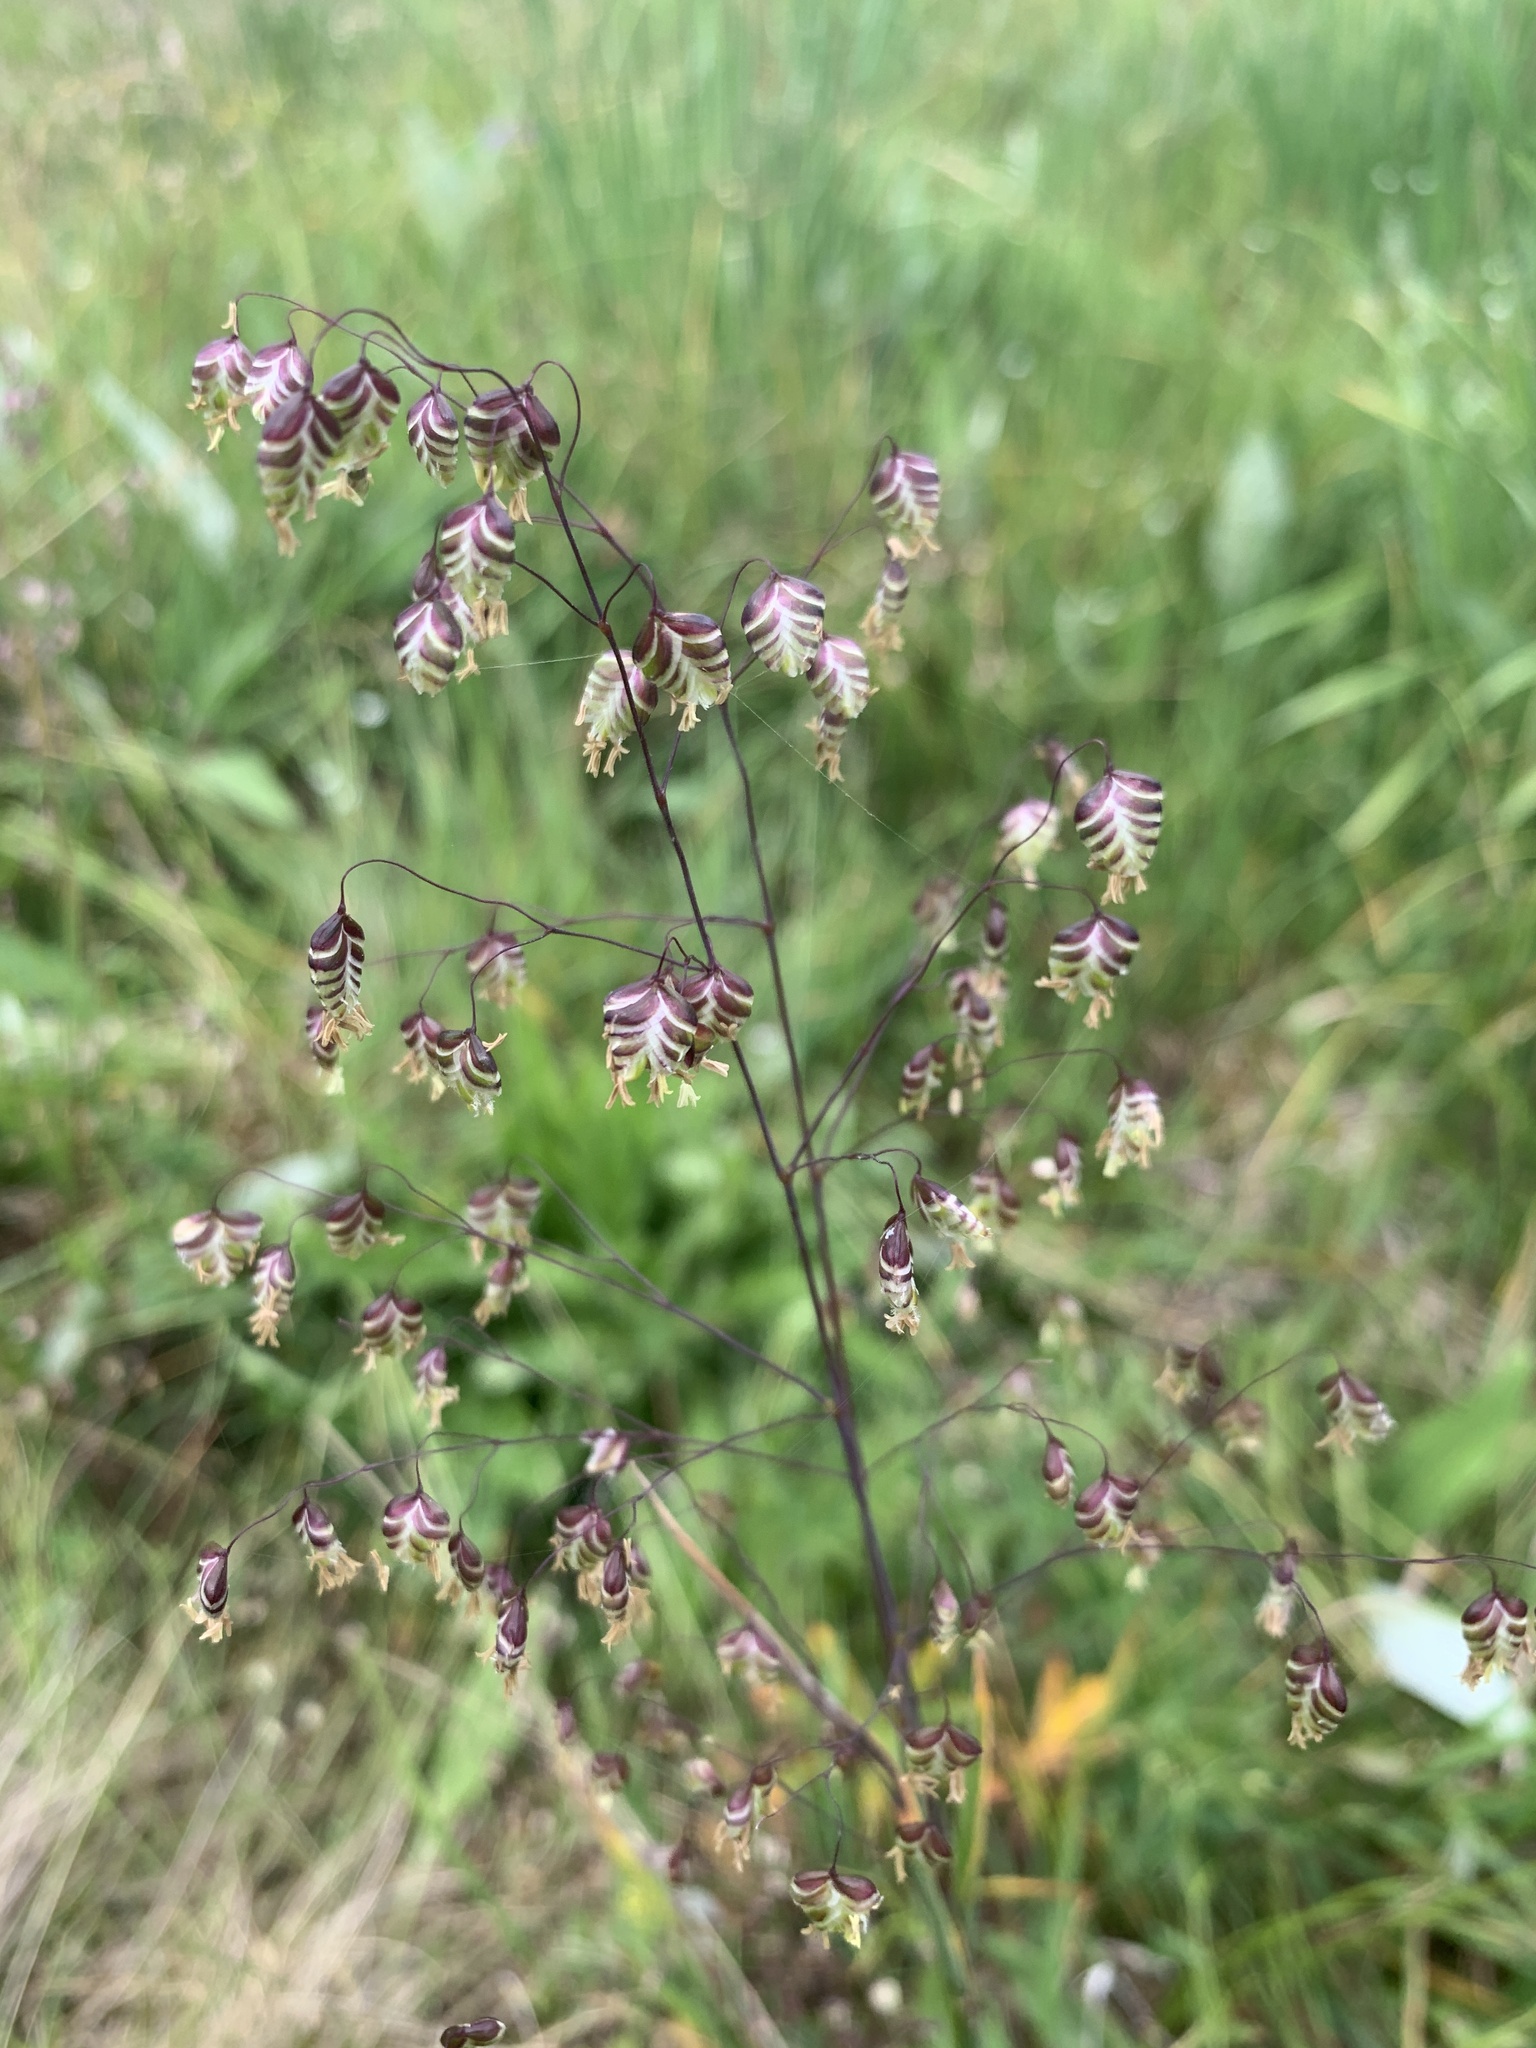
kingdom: Plantae
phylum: Tracheophyta
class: Liliopsida
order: Poales
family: Poaceae
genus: Briza
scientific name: Briza media
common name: Quaking grass
